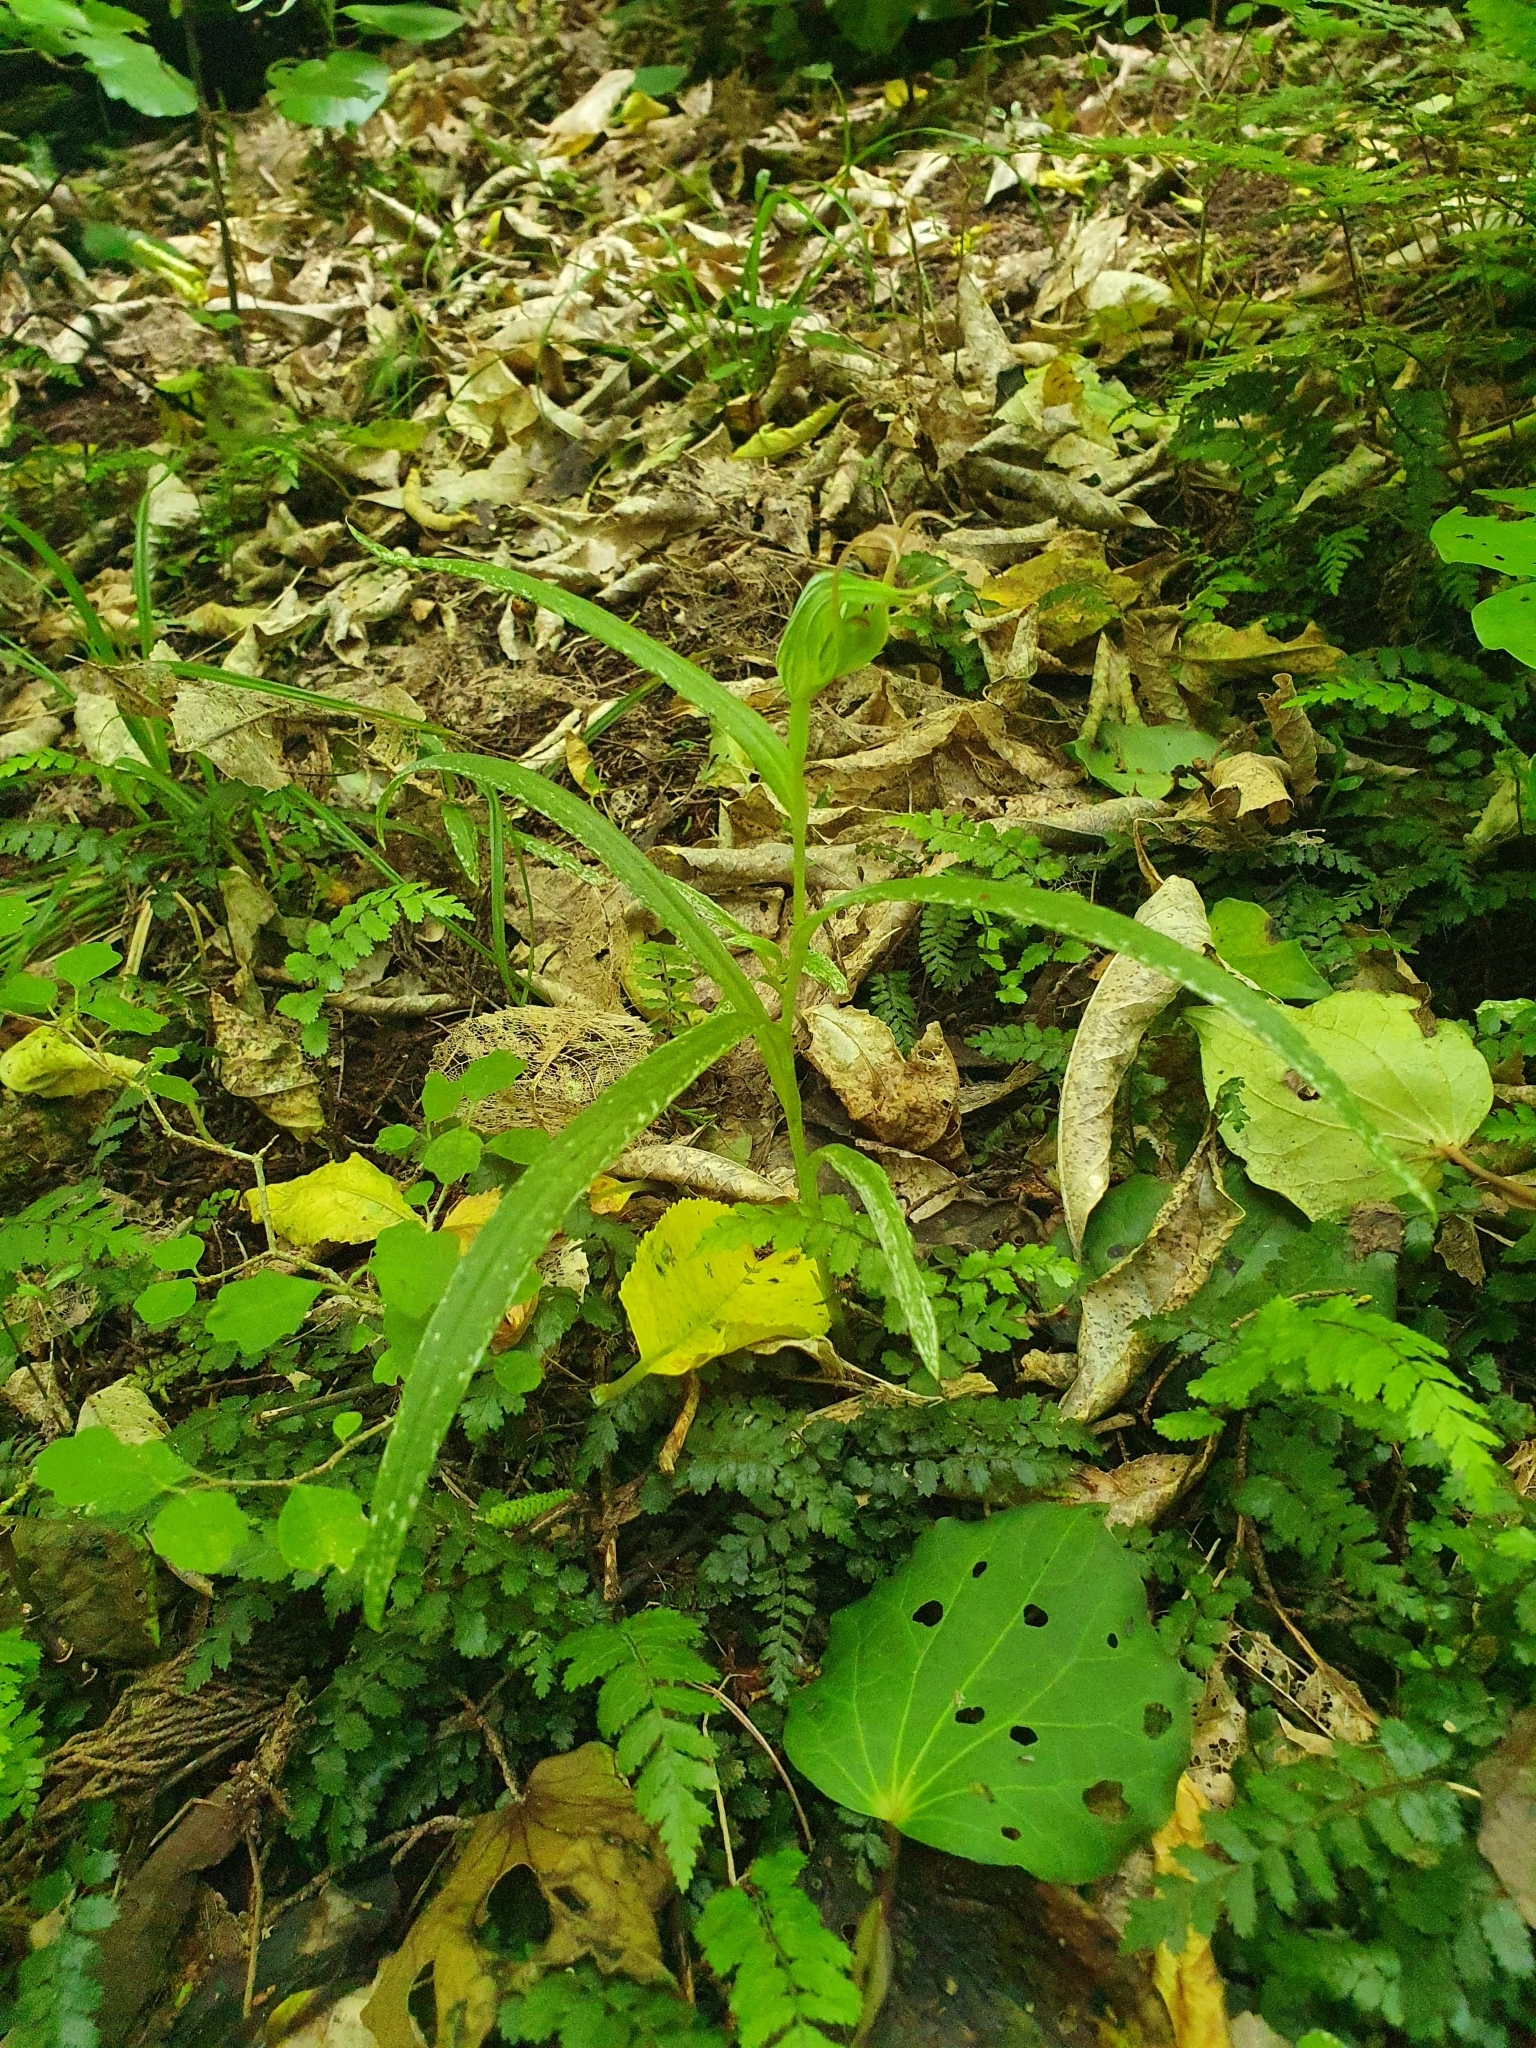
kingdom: Plantae
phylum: Tracheophyta
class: Liliopsida
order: Asparagales
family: Orchidaceae
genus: Pterostylis
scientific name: Pterostylis banksii
